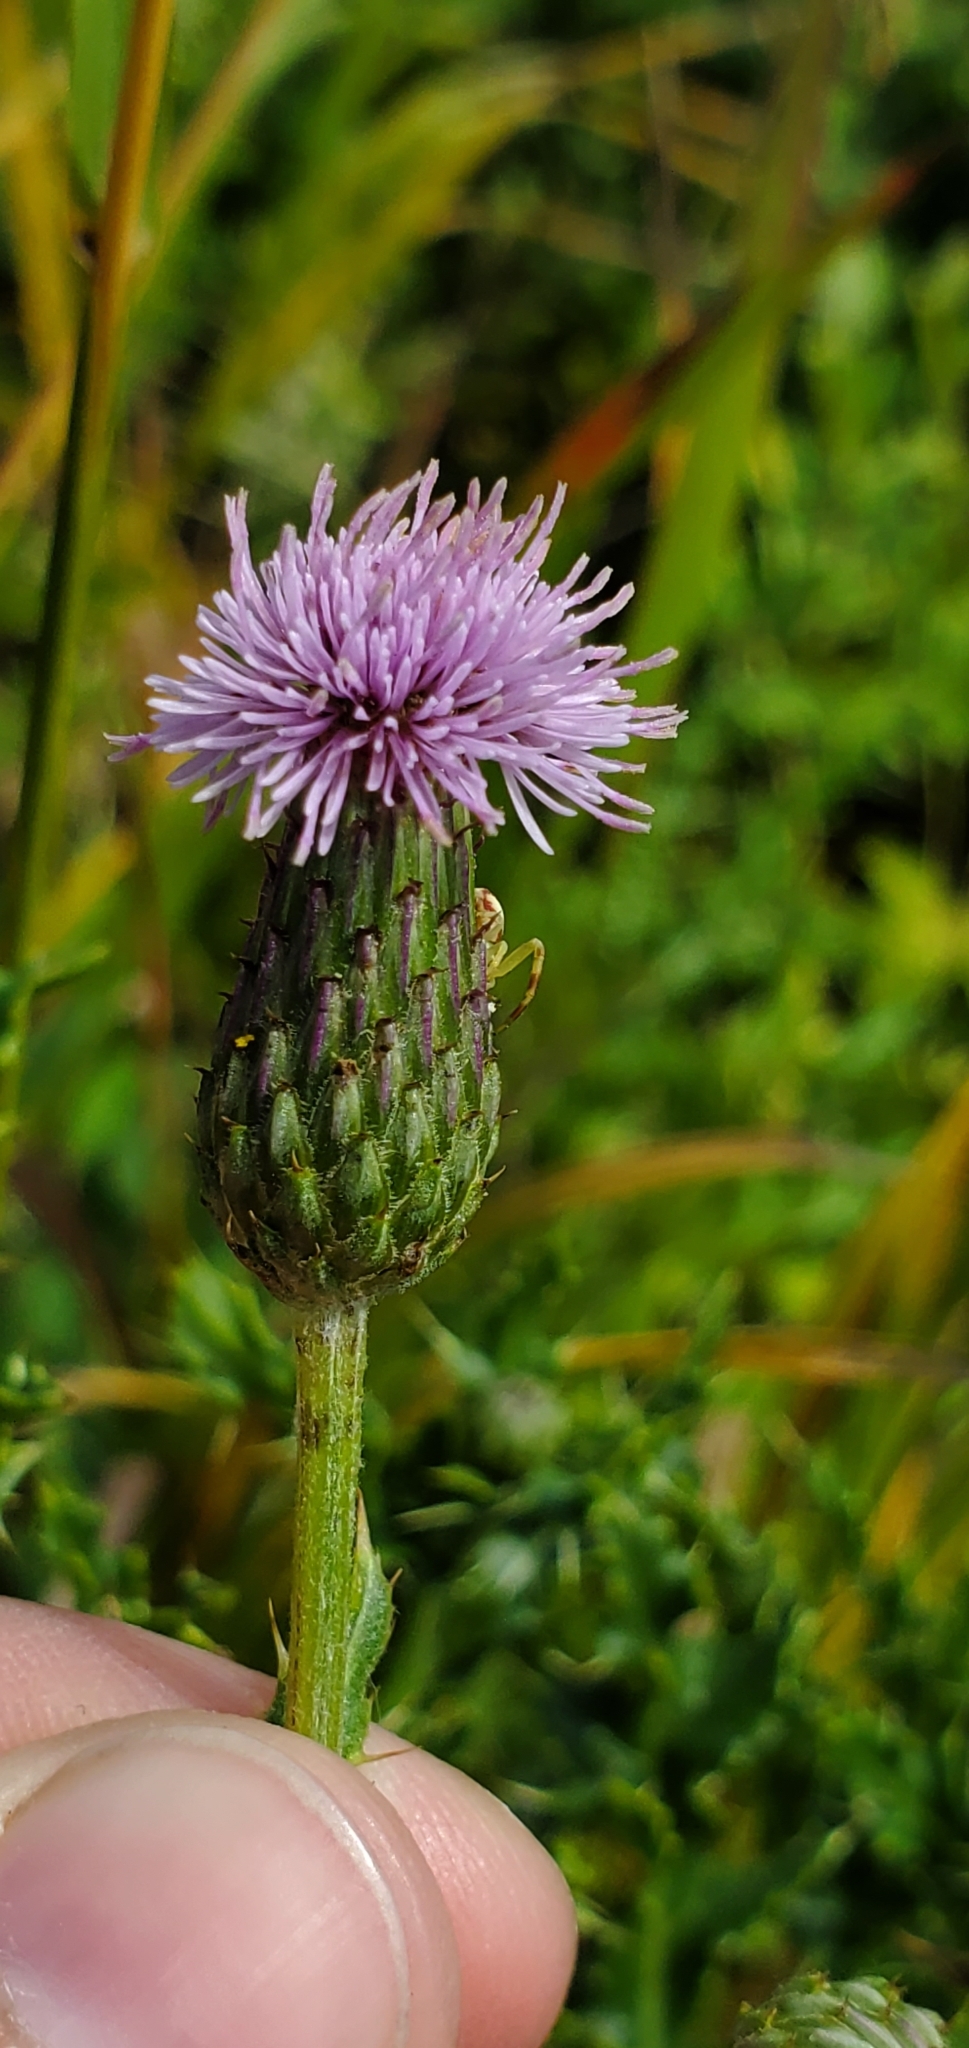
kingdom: Plantae
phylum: Tracheophyta
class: Magnoliopsida
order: Asterales
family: Asteraceae
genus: Cirsium
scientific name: Cirsium arvense
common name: Creeping thistle
